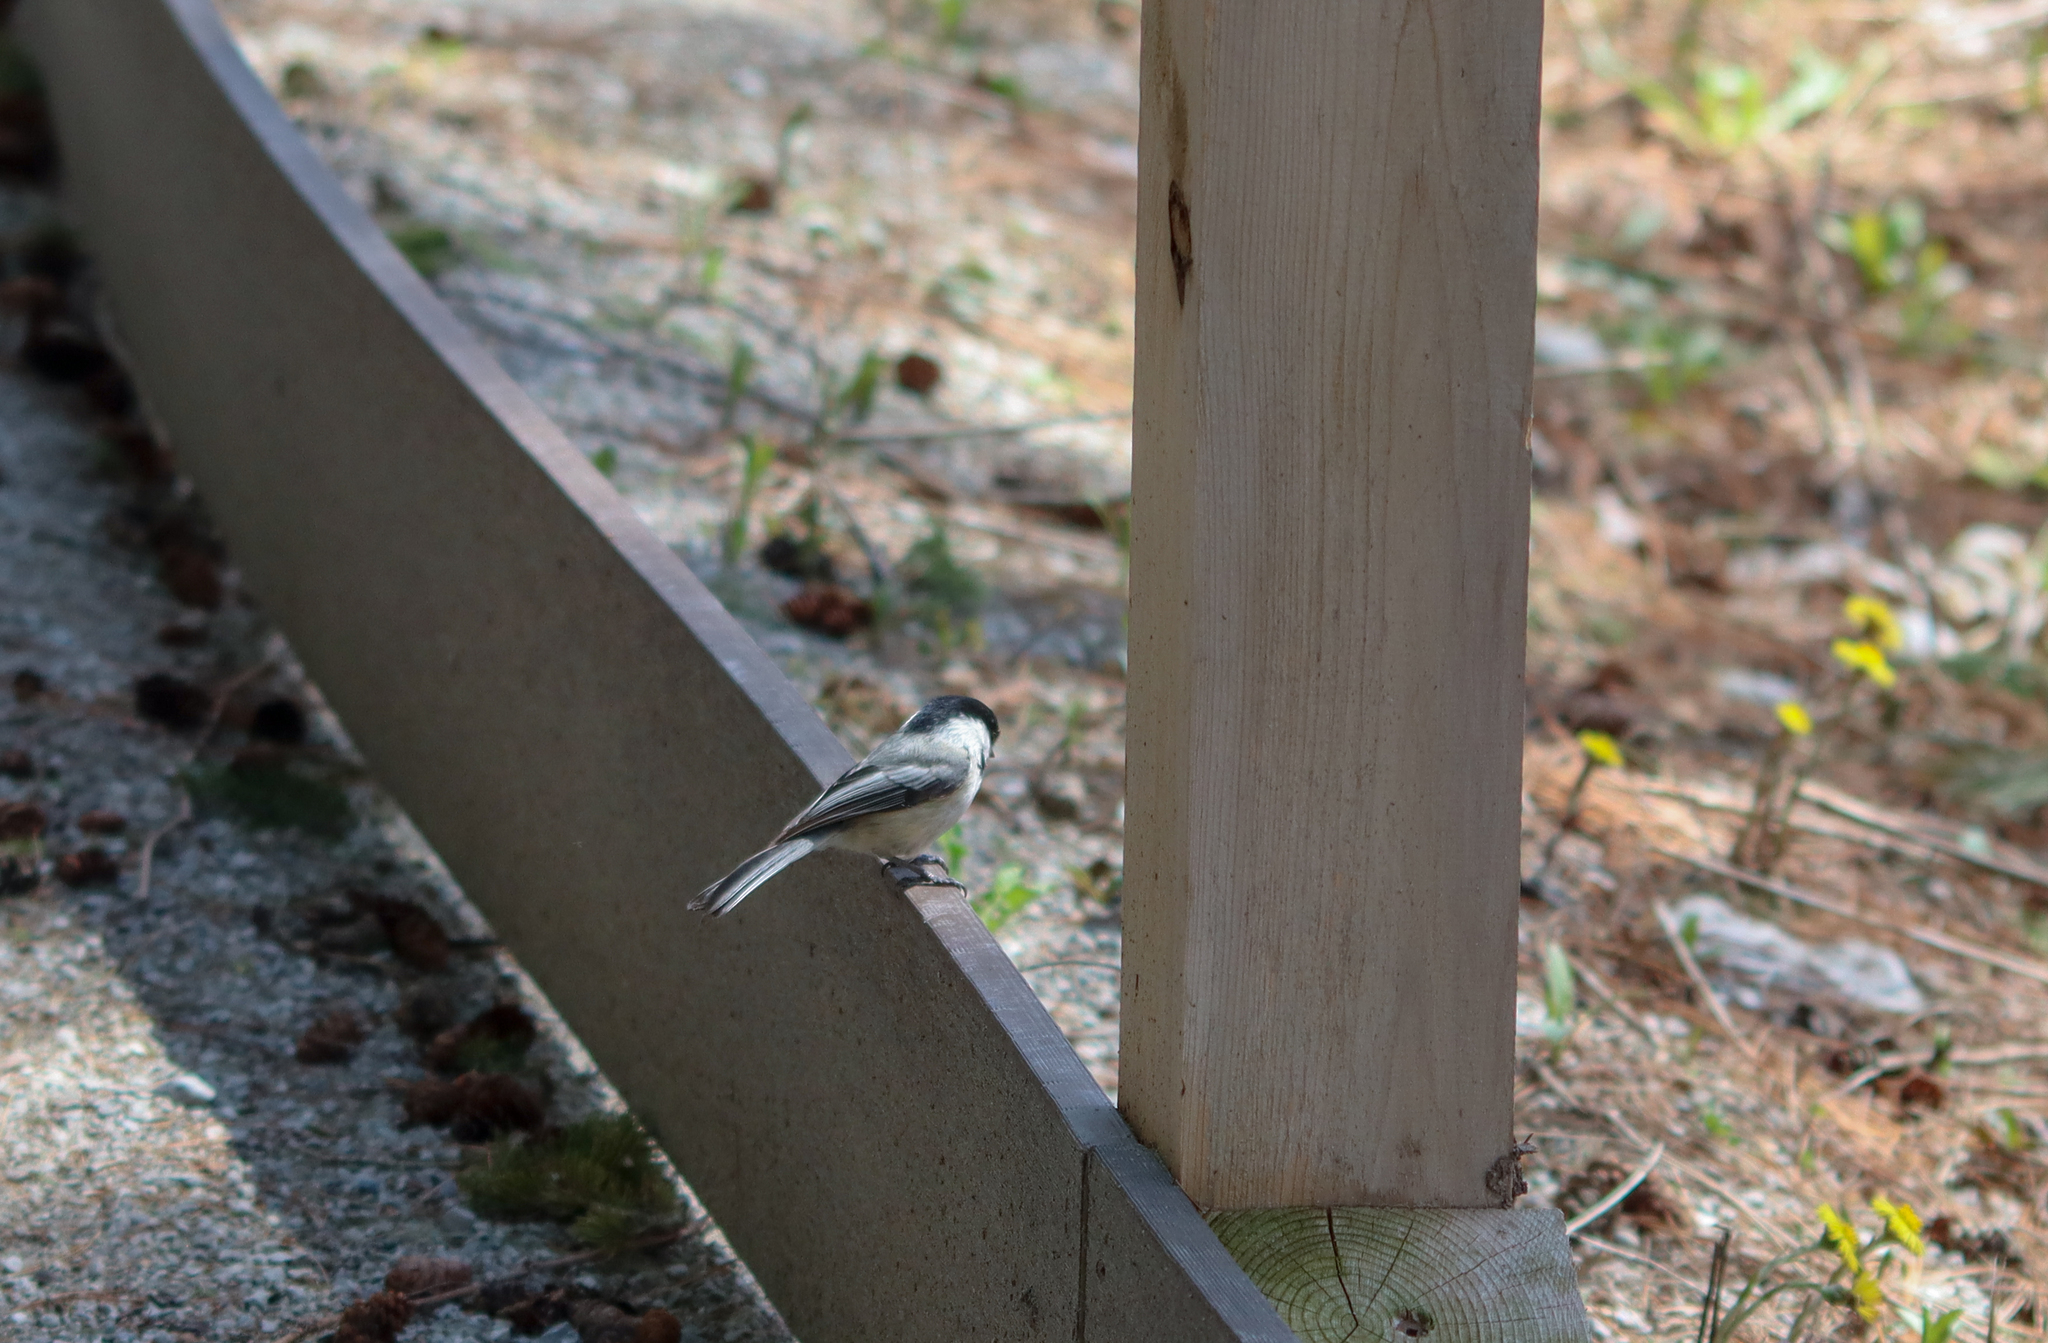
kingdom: Animalia
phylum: Chordata
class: Aves
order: Passeriformes
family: Paridae
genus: Poecile
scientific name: Poecile atricapillus
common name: Black-capped chickadee
